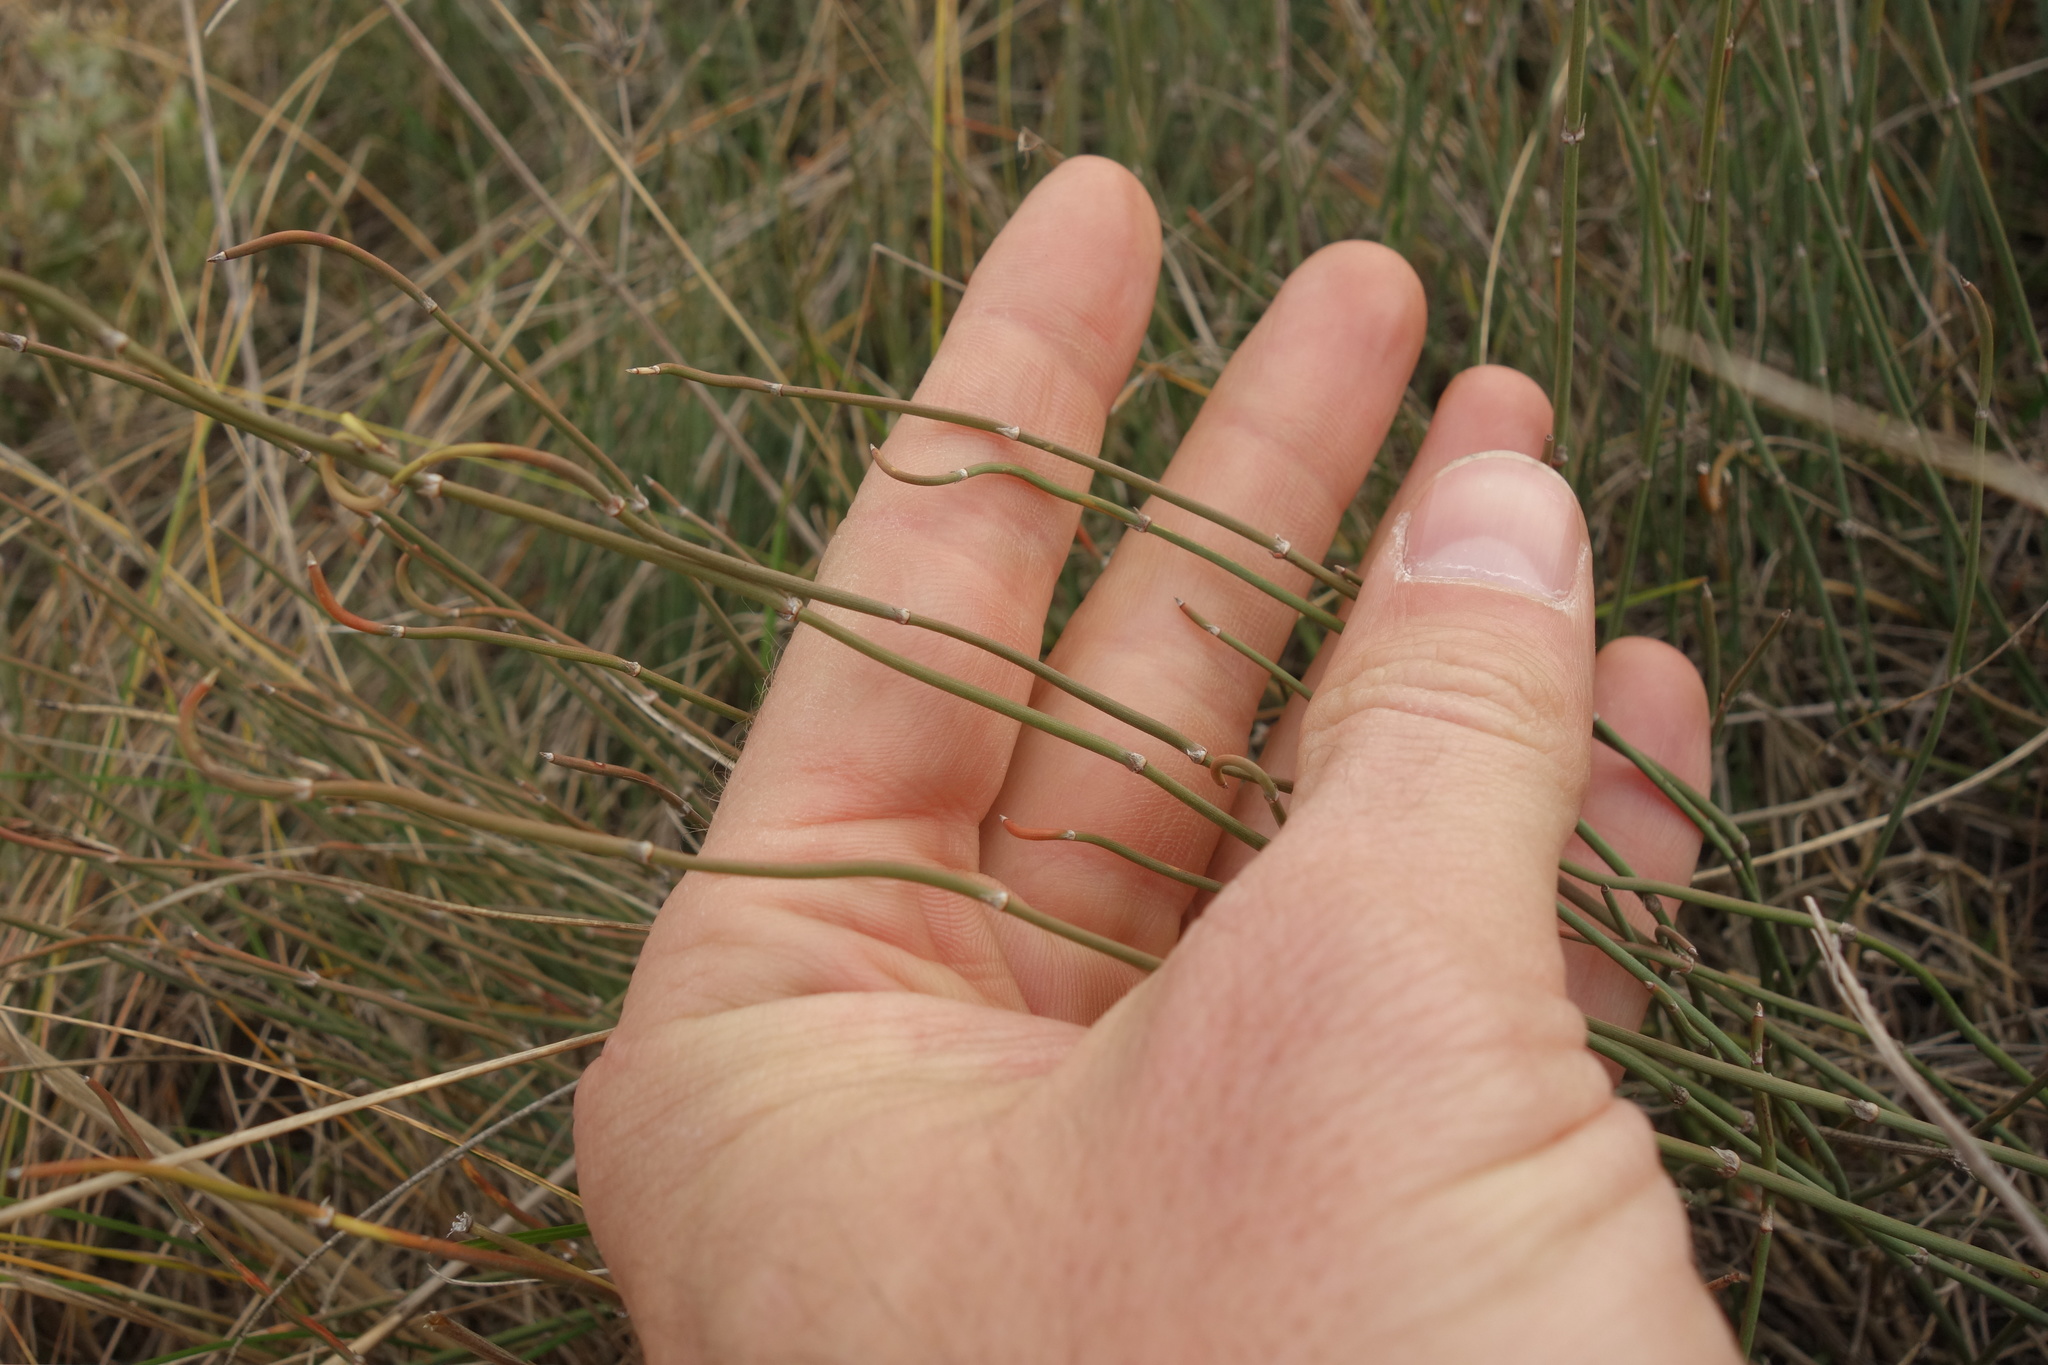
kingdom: Plantae
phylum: Tracheophyta
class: Gnetopsida
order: Ephedrales
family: Ephedraceae
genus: Ephedra
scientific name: Ephedra distachya
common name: Sea grape
